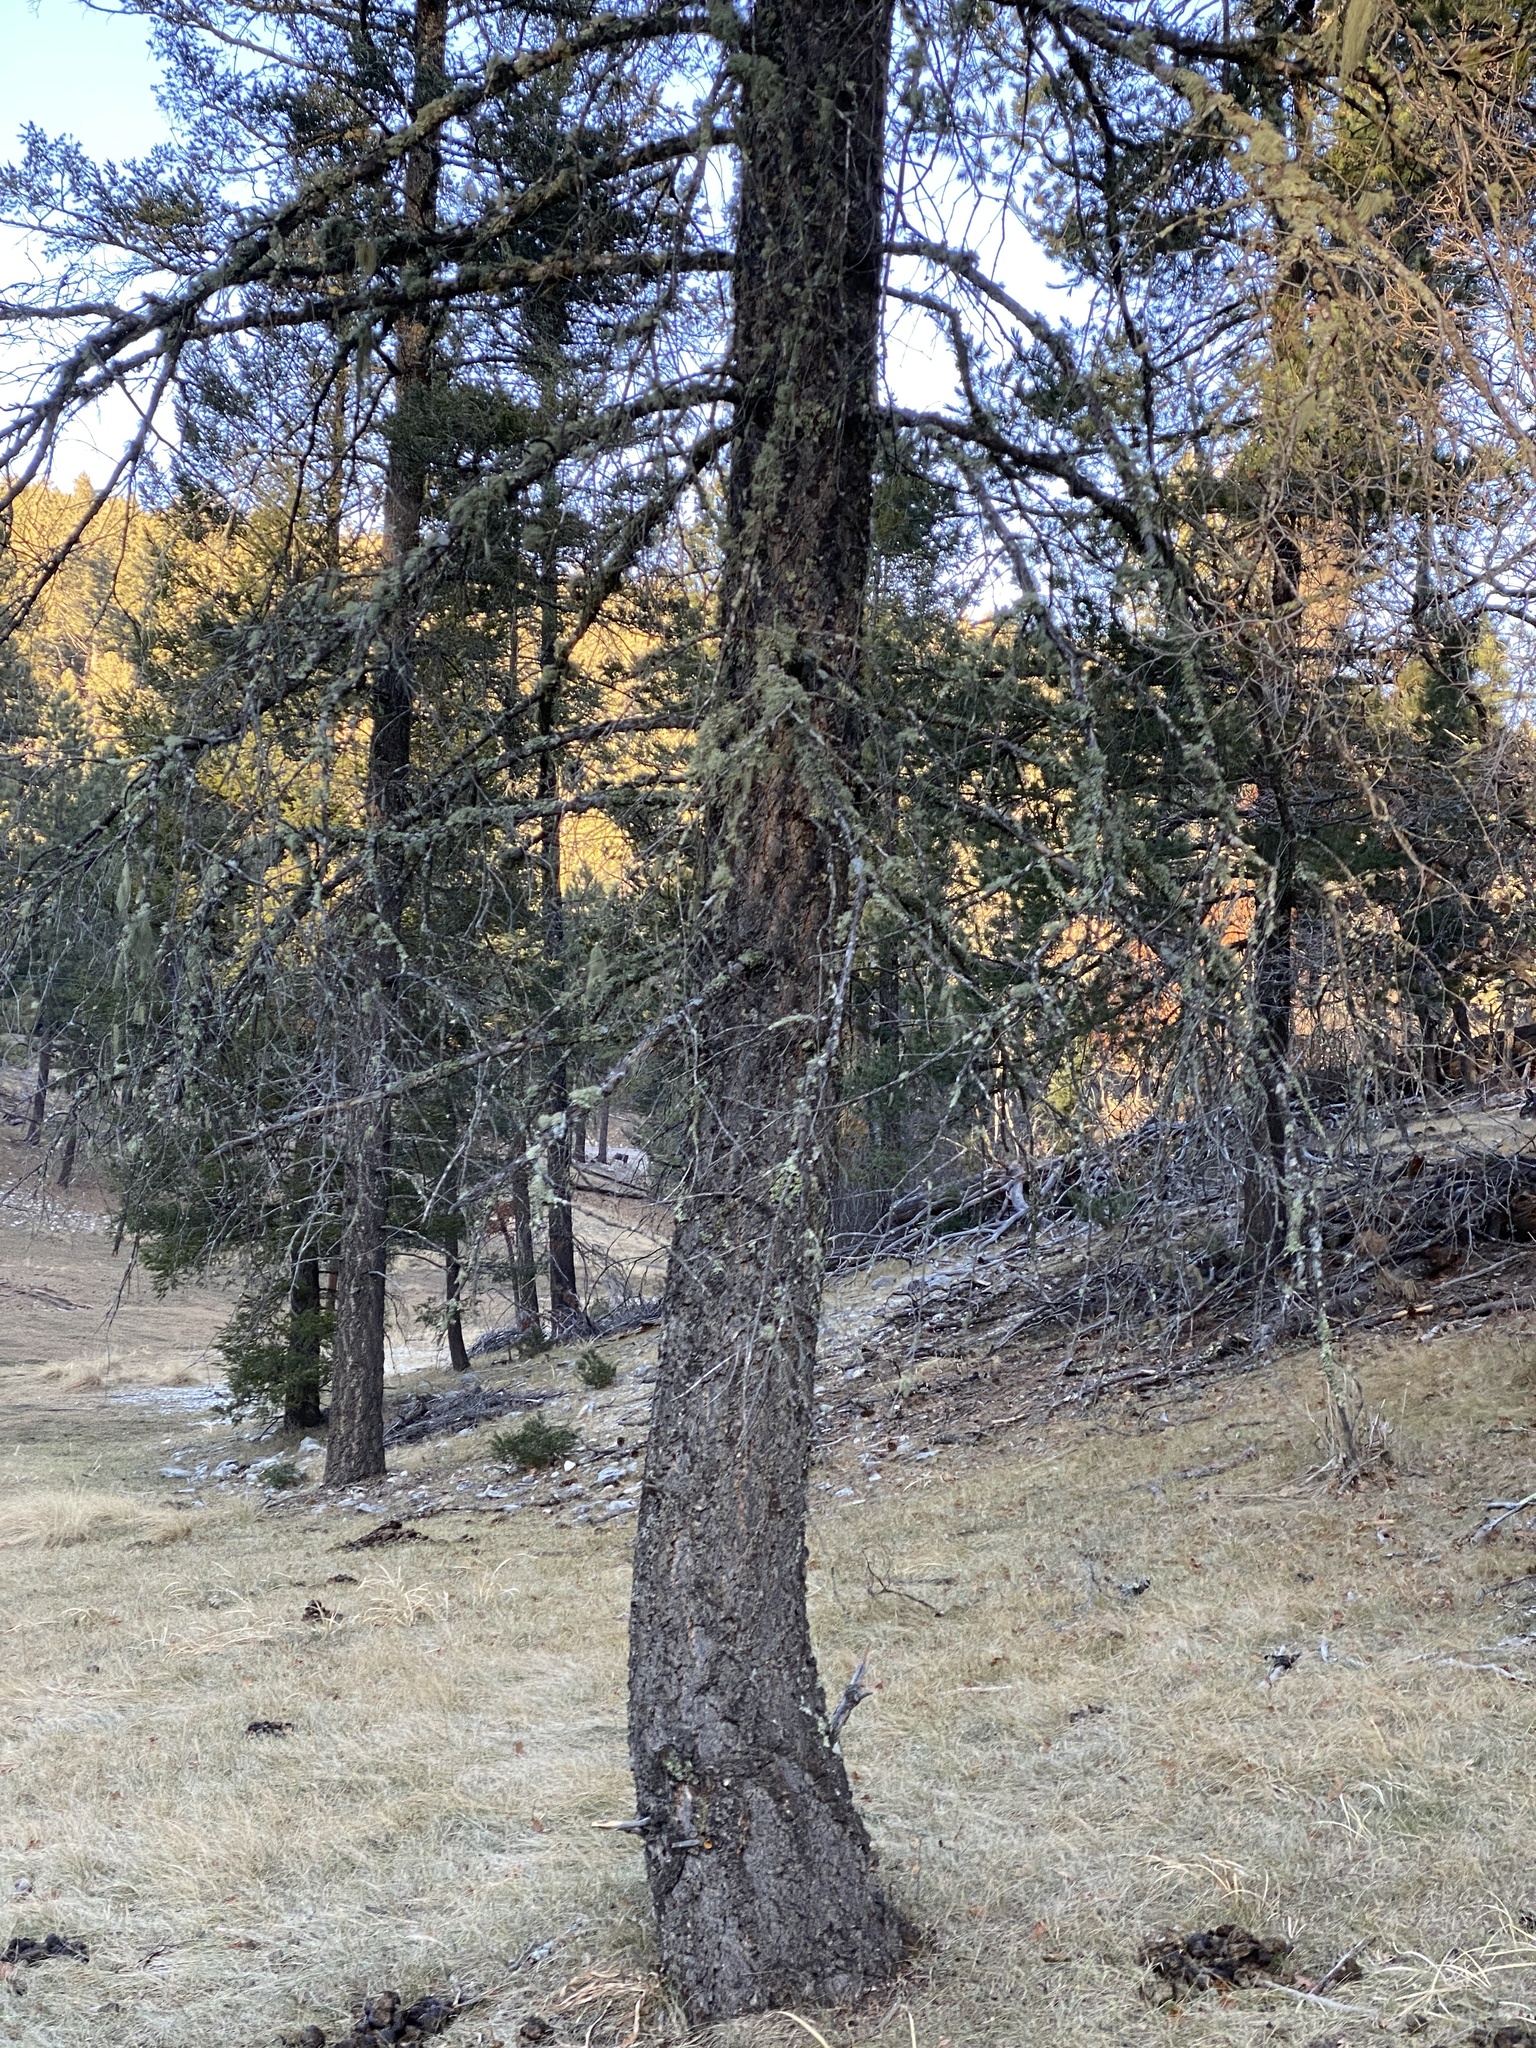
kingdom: Plantae
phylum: Tracheophyta
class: Pinopsida
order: Pinales
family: Pinaceae
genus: Pseudotsuga
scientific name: Pseudotsuga menziesii
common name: Douglas fir
